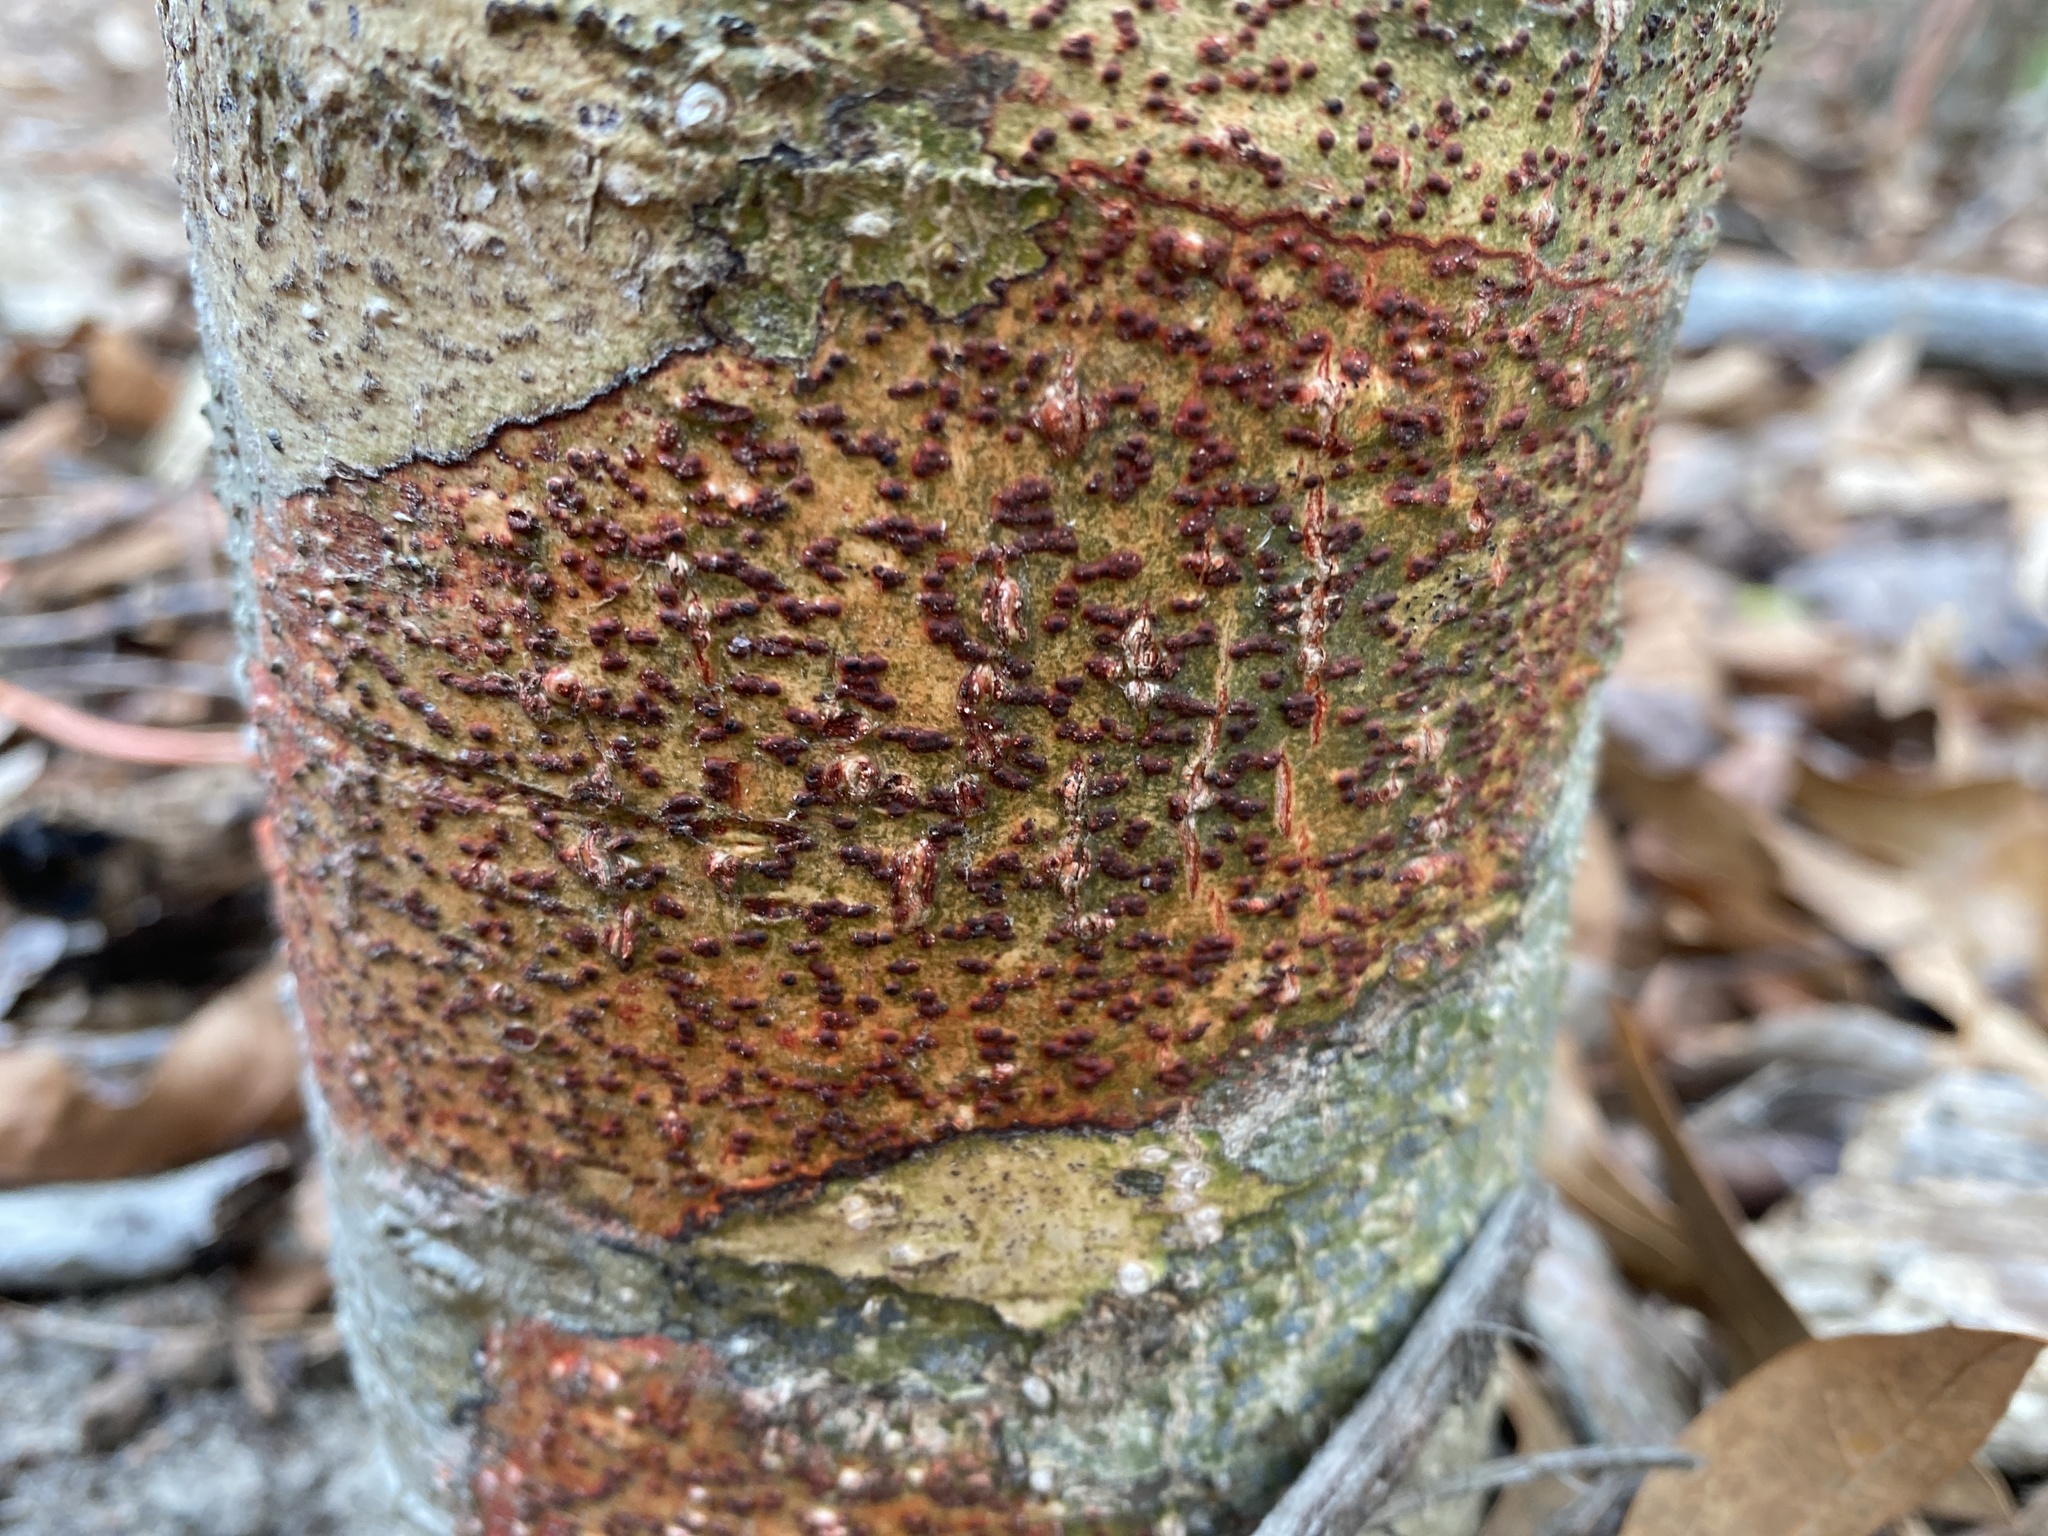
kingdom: Fungi
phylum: Ascomycota
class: Eurotiomycetes
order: Pyrenulales
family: Pyrenulaceae
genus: Pyrenula
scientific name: Pyrenula cruenta
